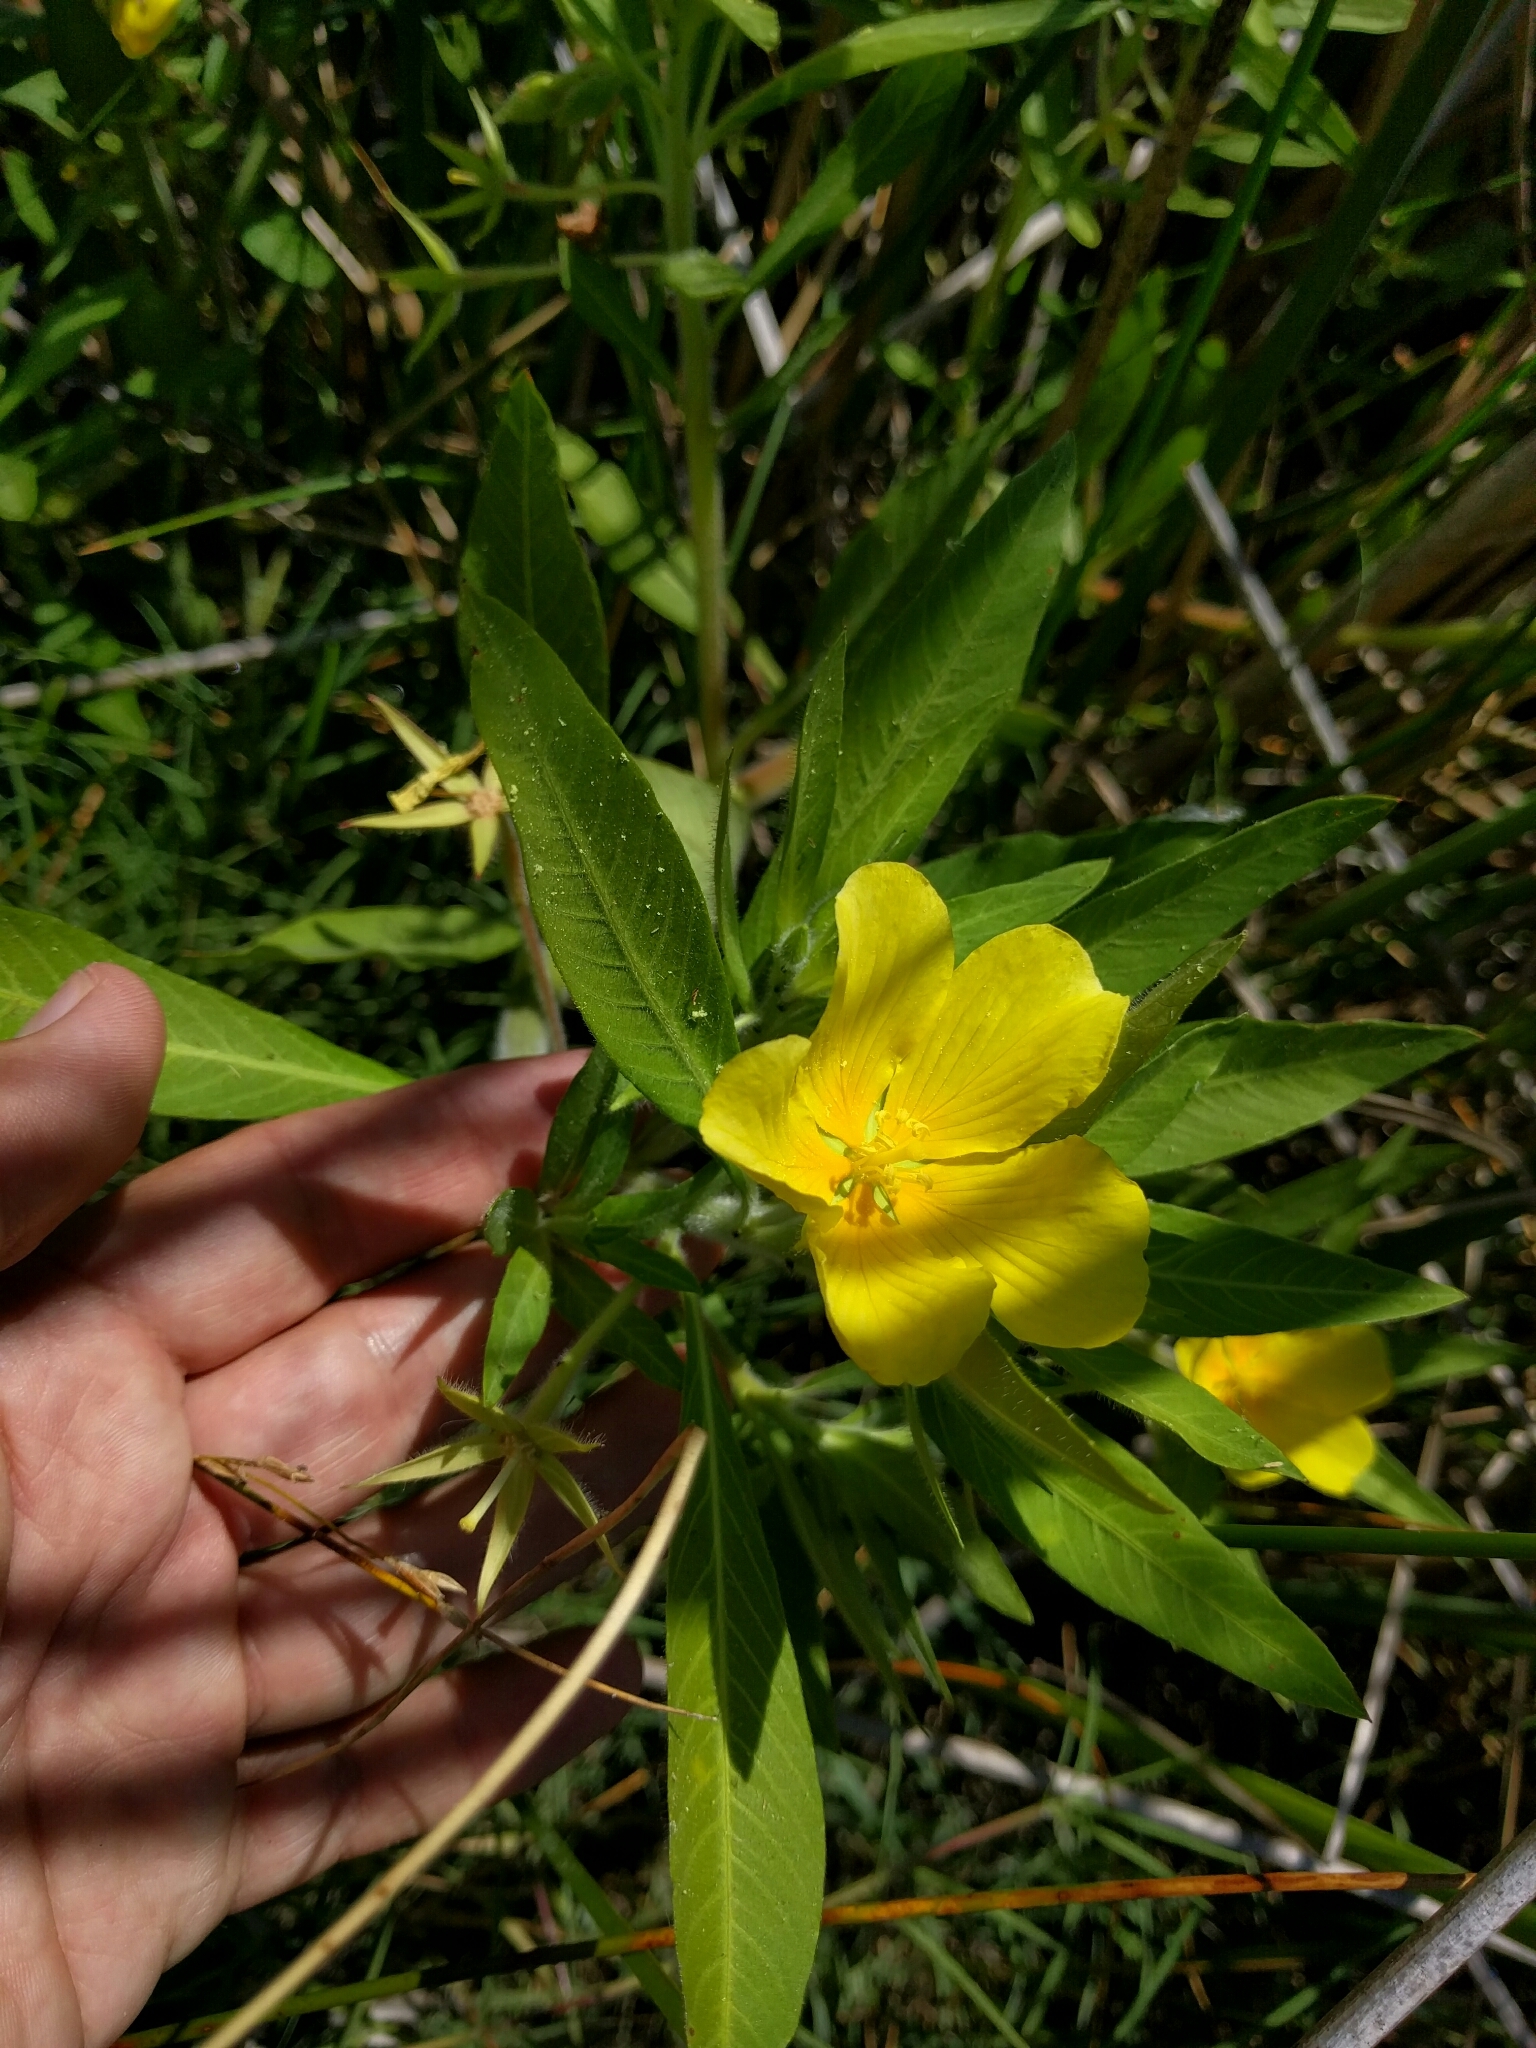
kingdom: Plantae
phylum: Tracheophyta
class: Magnoliopsida
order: Myrtales
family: Onagraceae
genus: Ludwigia
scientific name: Ludwigia hexapetala
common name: Water-primrose
